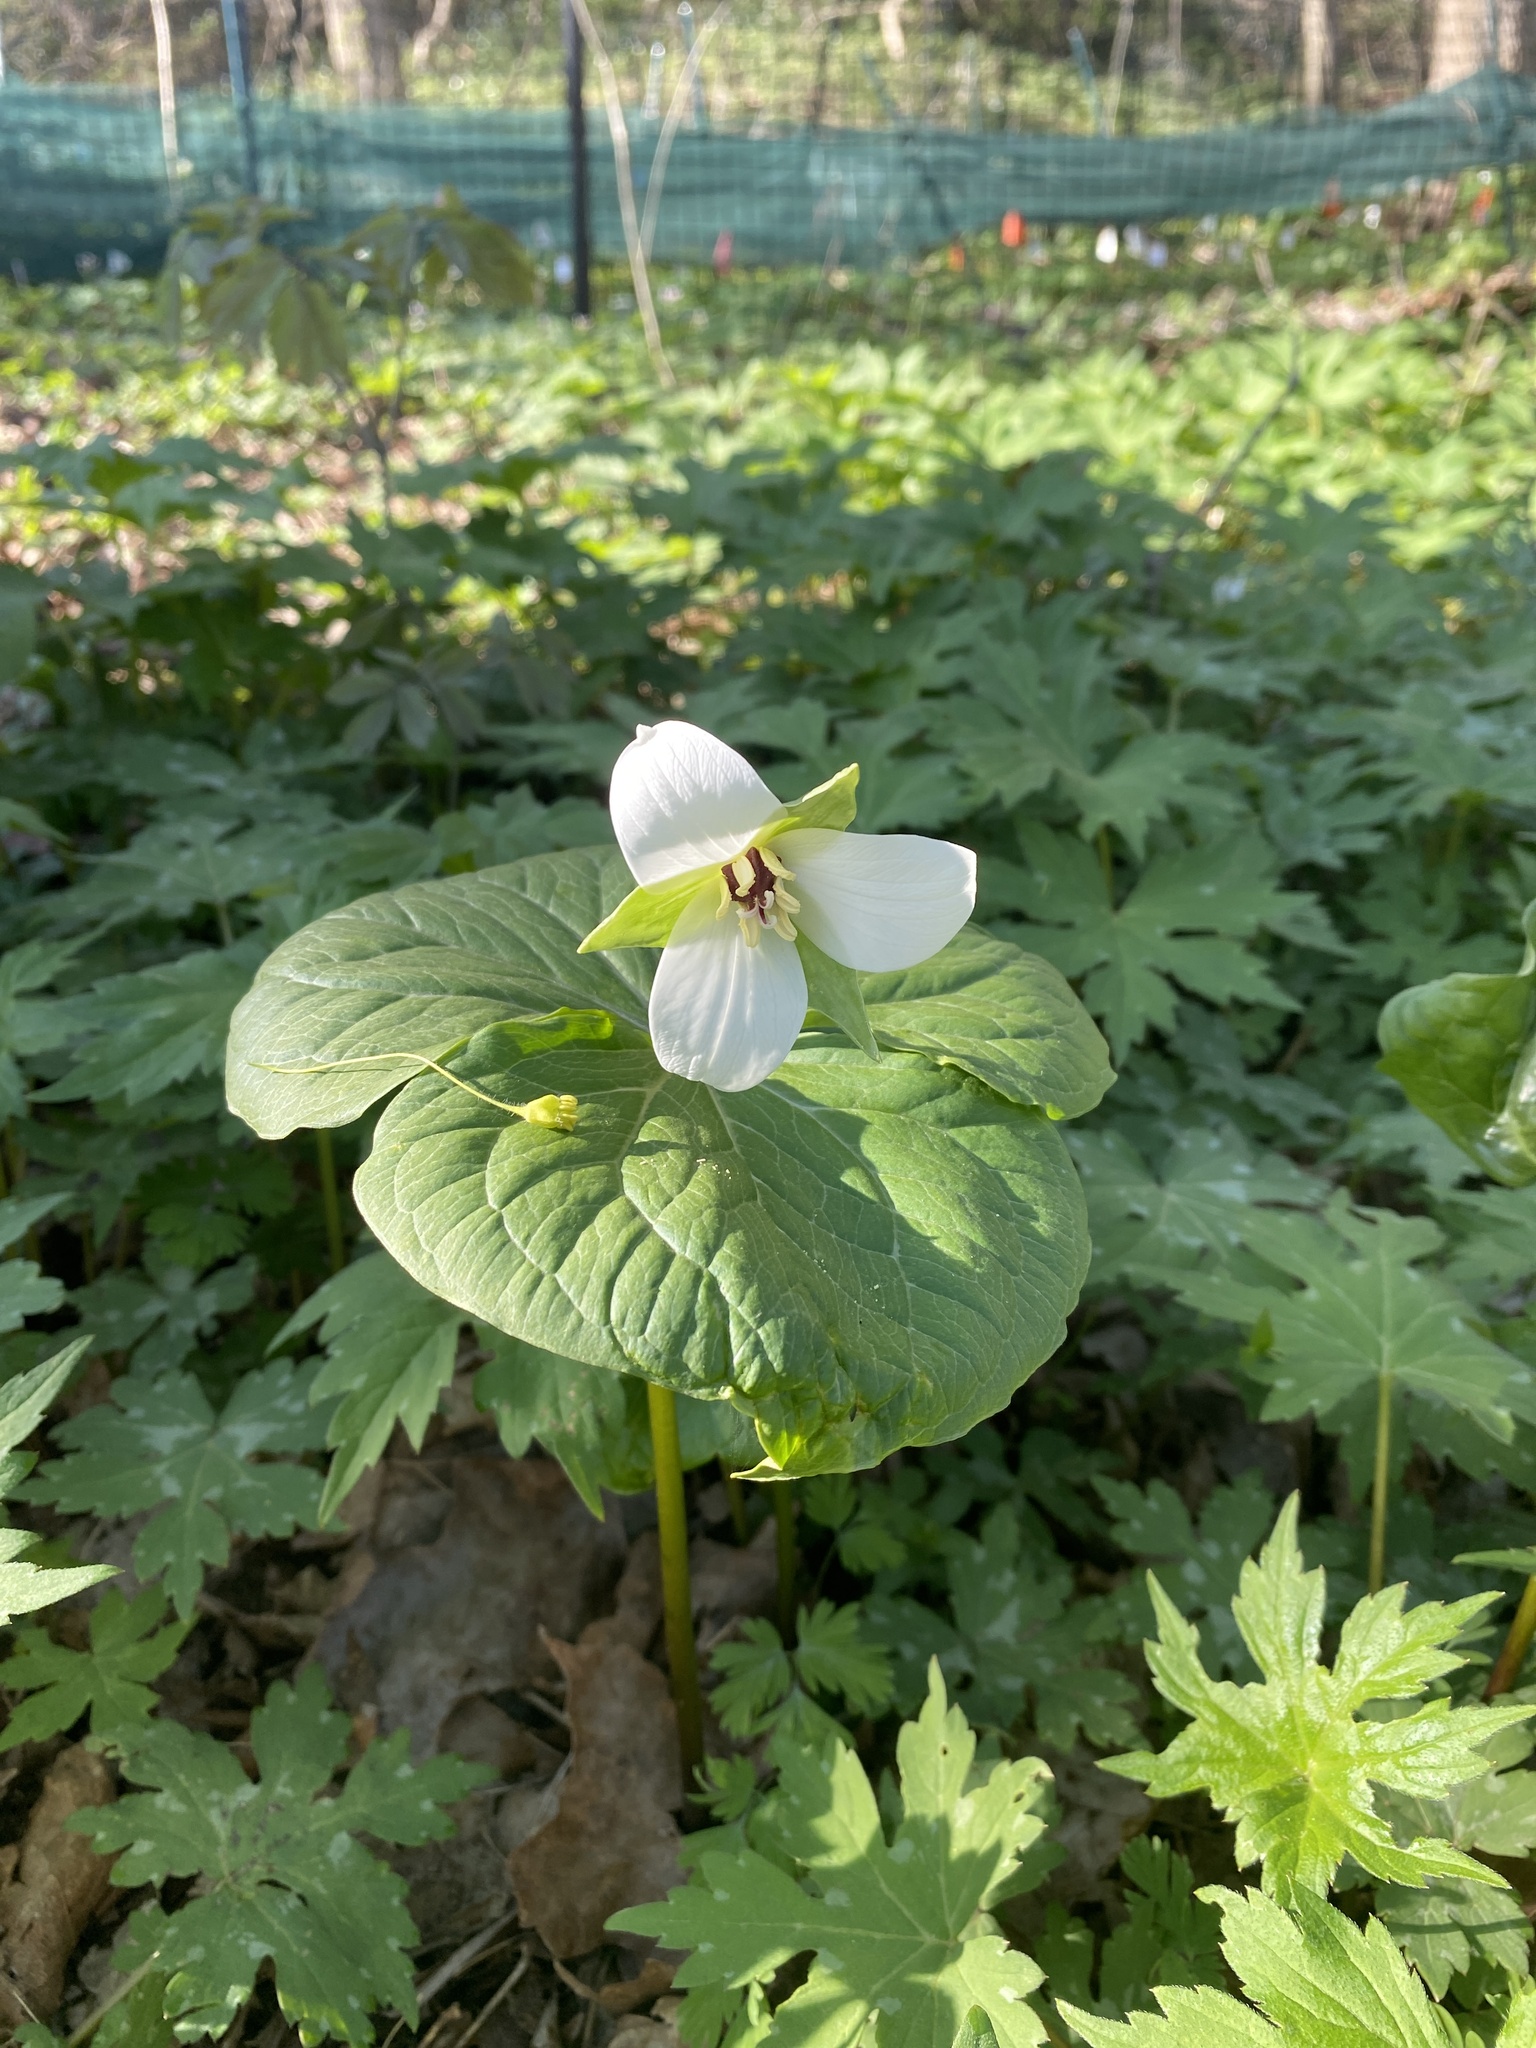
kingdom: Plantae
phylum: Tracheophyta
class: Liliopsida
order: Liliales
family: Melanthiaceae
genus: Trillium
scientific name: Trillium erectum
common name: Purple trillium
